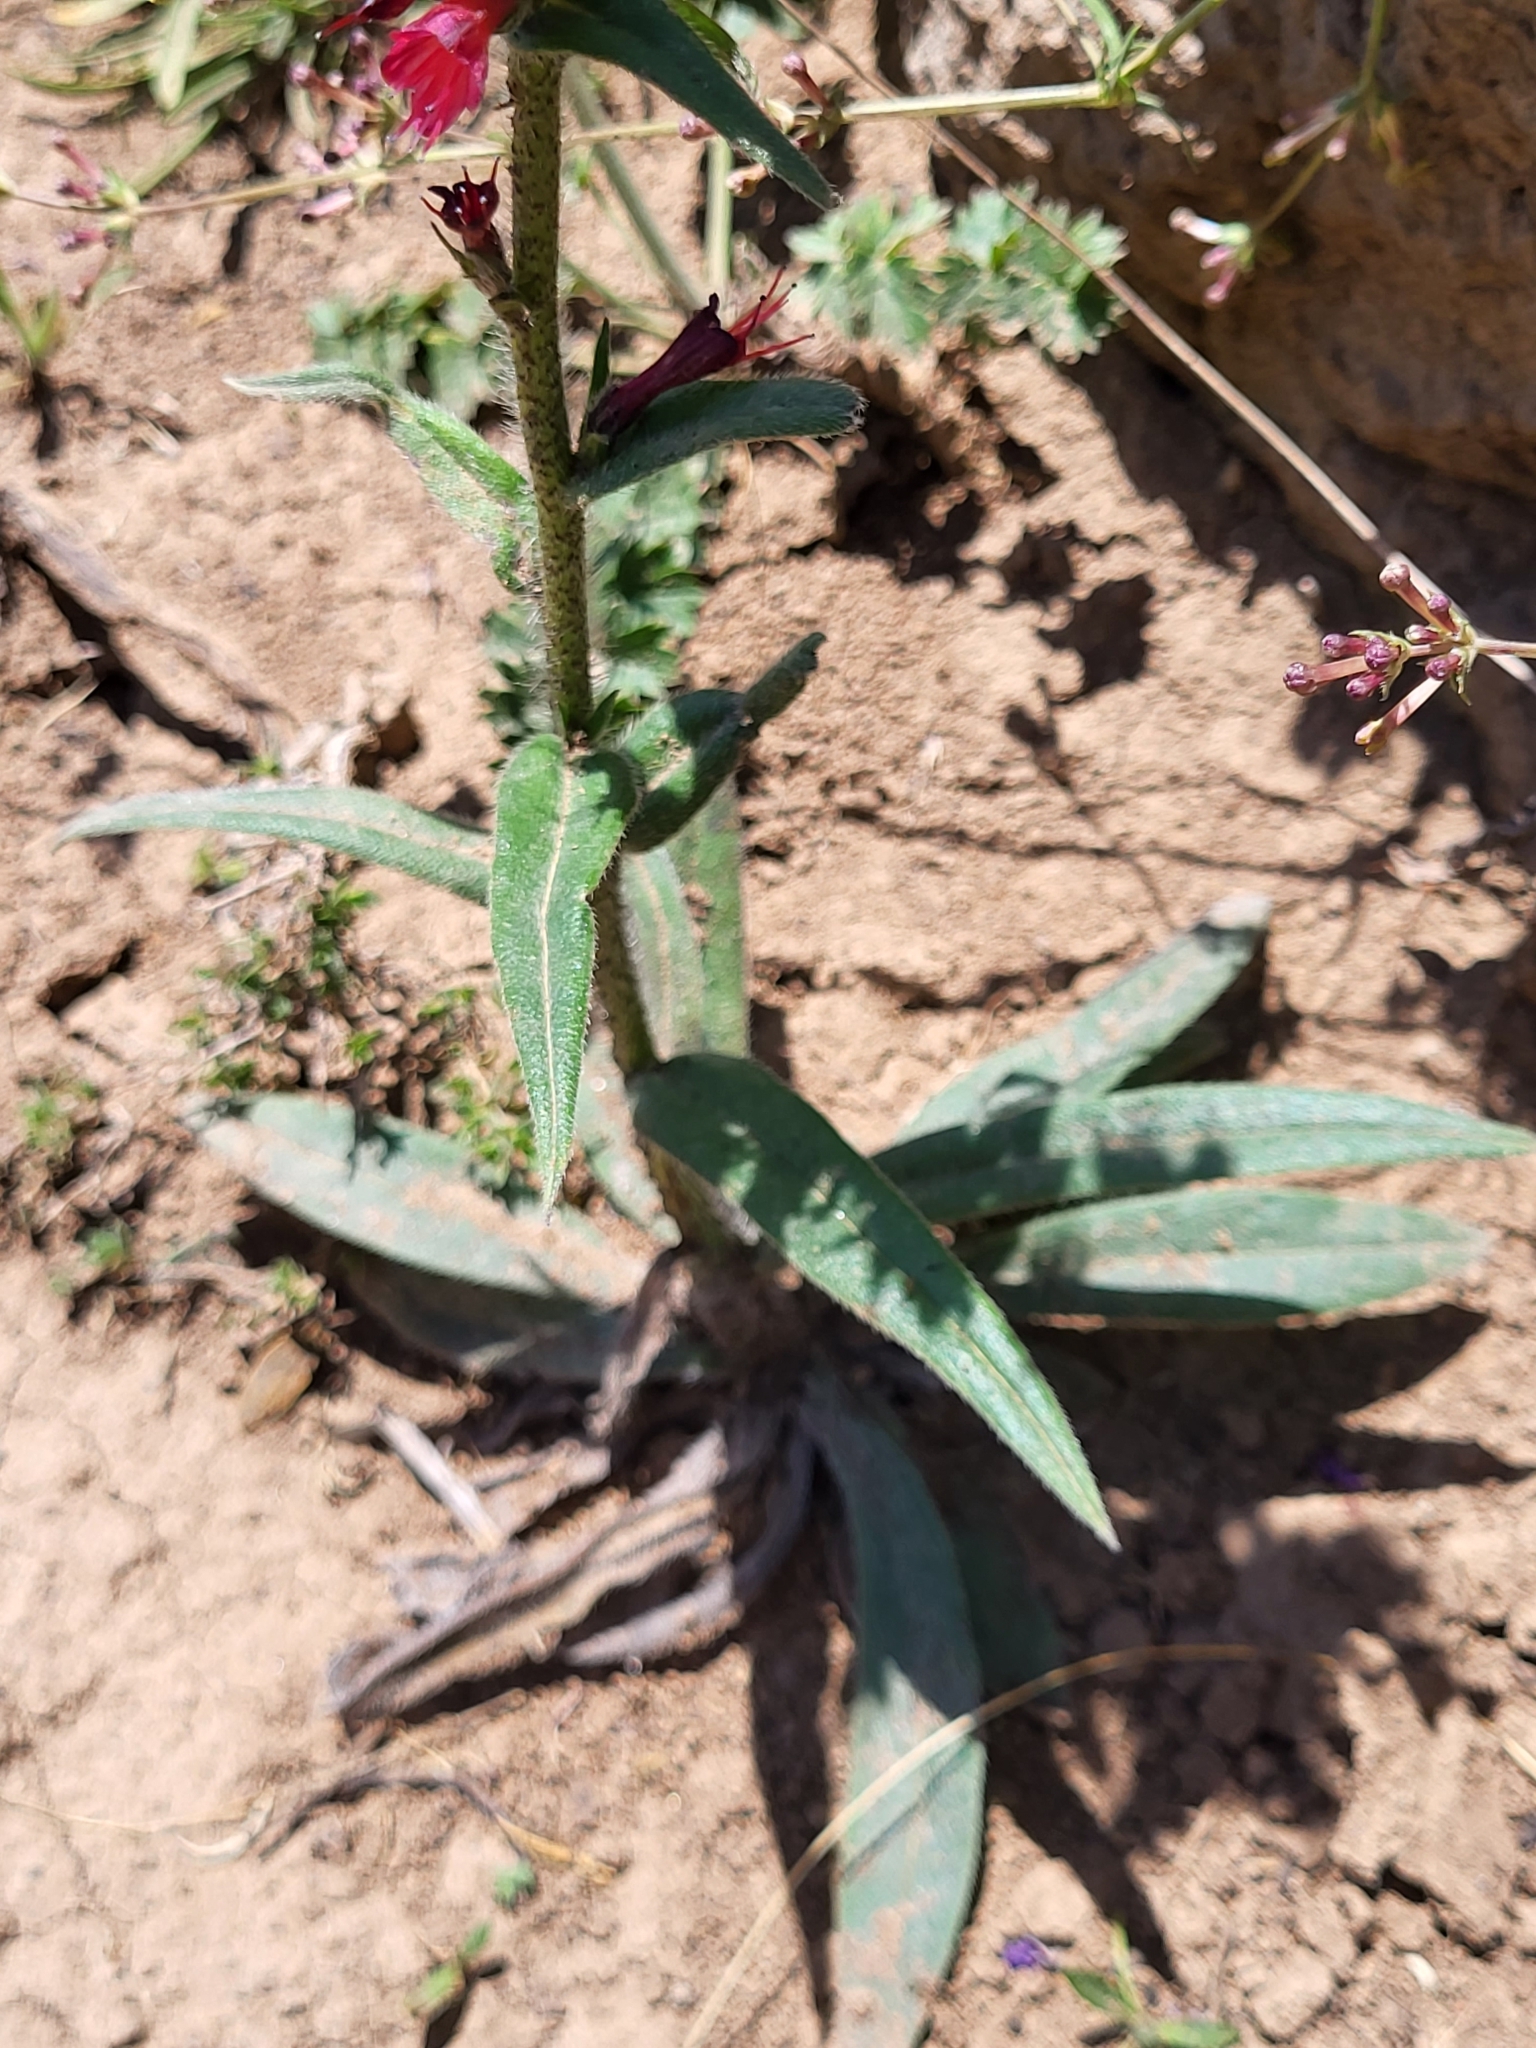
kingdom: Plantae
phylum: Tracheophyta
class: Magnoliopsida
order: Boraginales
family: Boraginaceae
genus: Pontechium
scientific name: Pontechium maculatum
